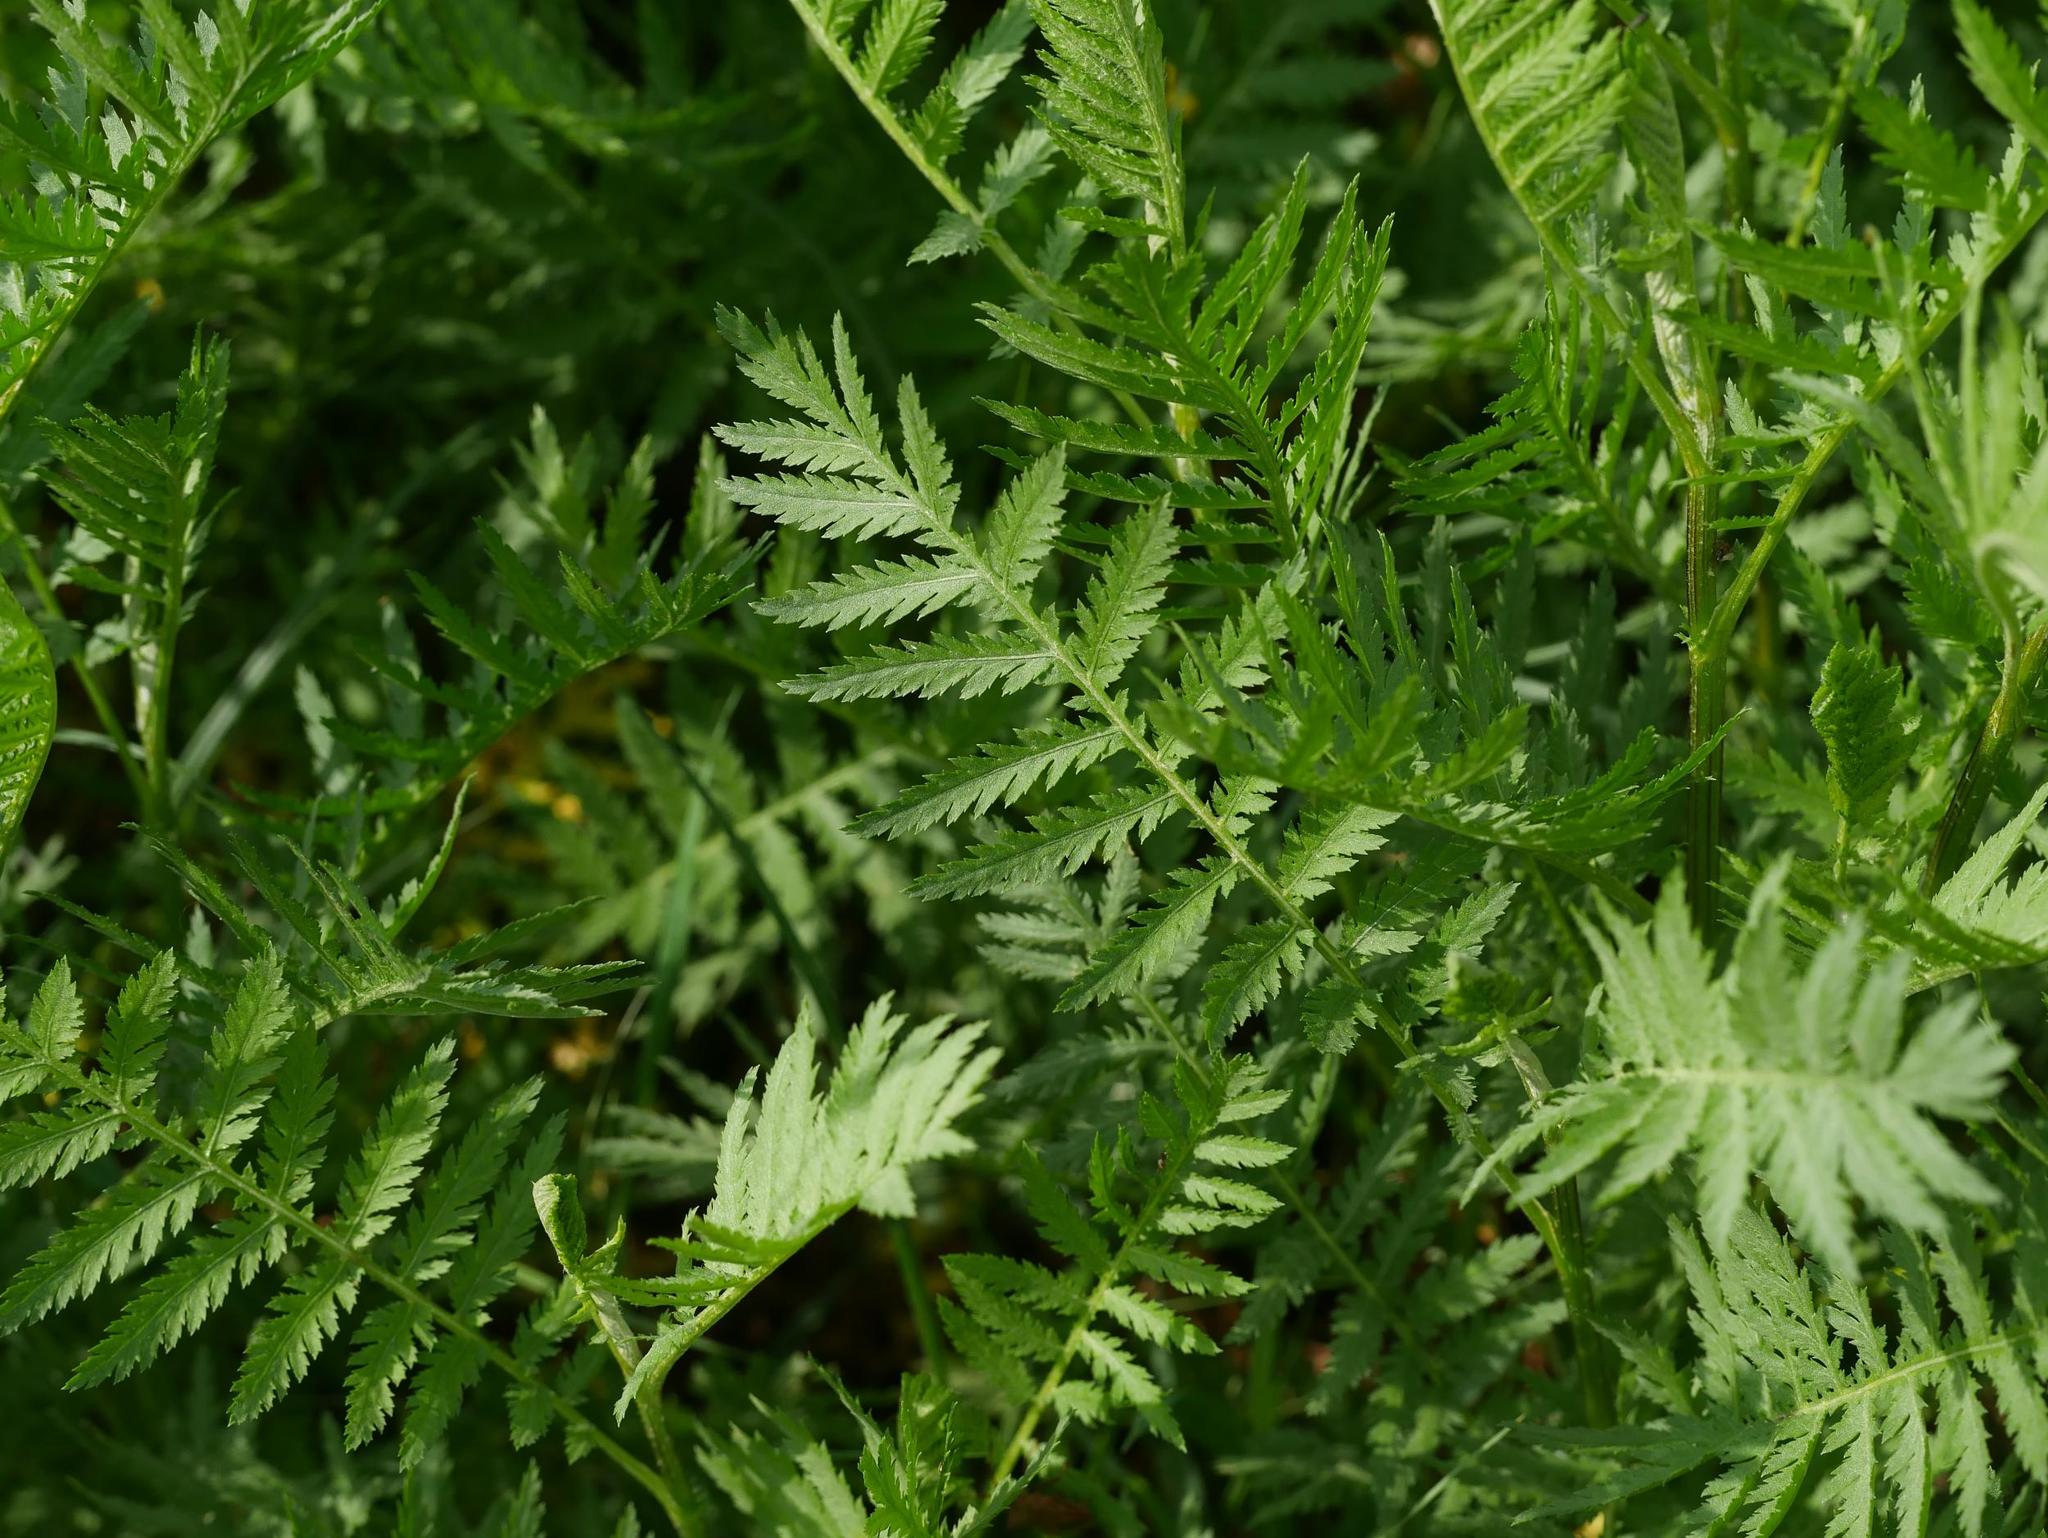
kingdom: Plantae
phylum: Tracheophyta
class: Magnoliopsida
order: Asterales
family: Asteraceae
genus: Tanacetum
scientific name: Tanacetum vulgare
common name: Common tansy
